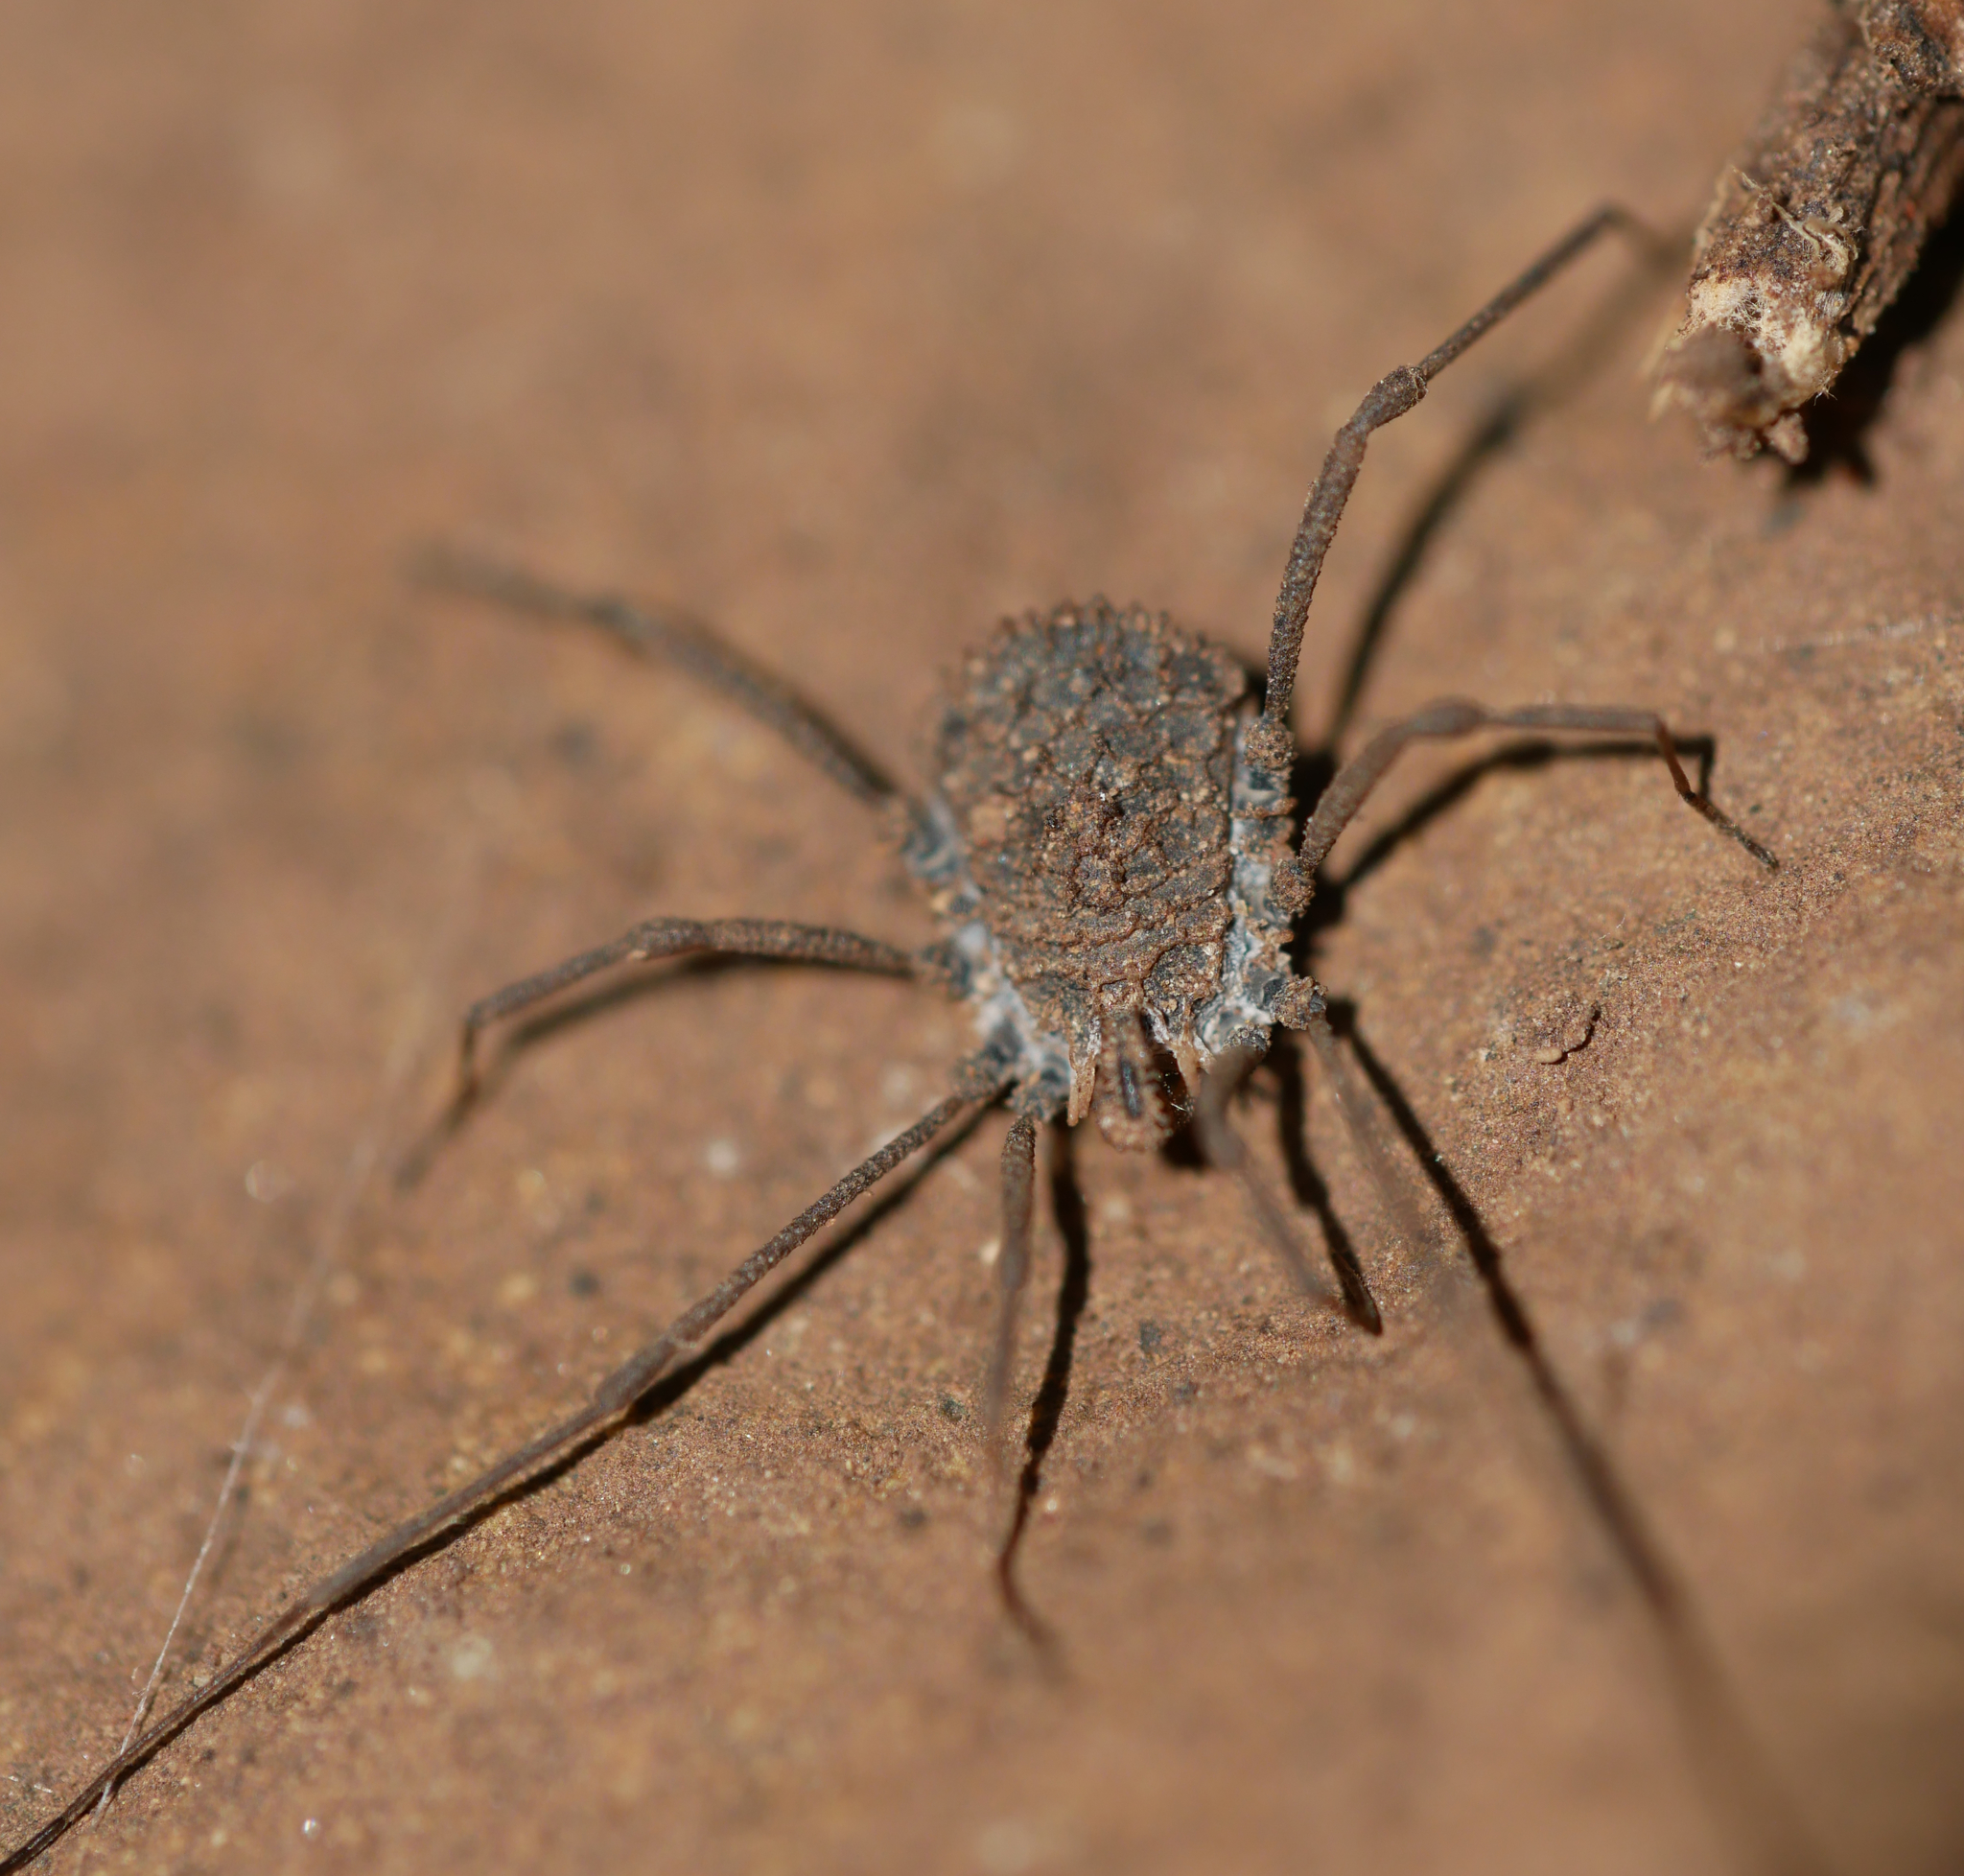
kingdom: Animalia
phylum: Arthropoda
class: Arachnida
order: Opiliones
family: Nemastomatidae
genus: Ortholasma
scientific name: Ortholasma rugosum
